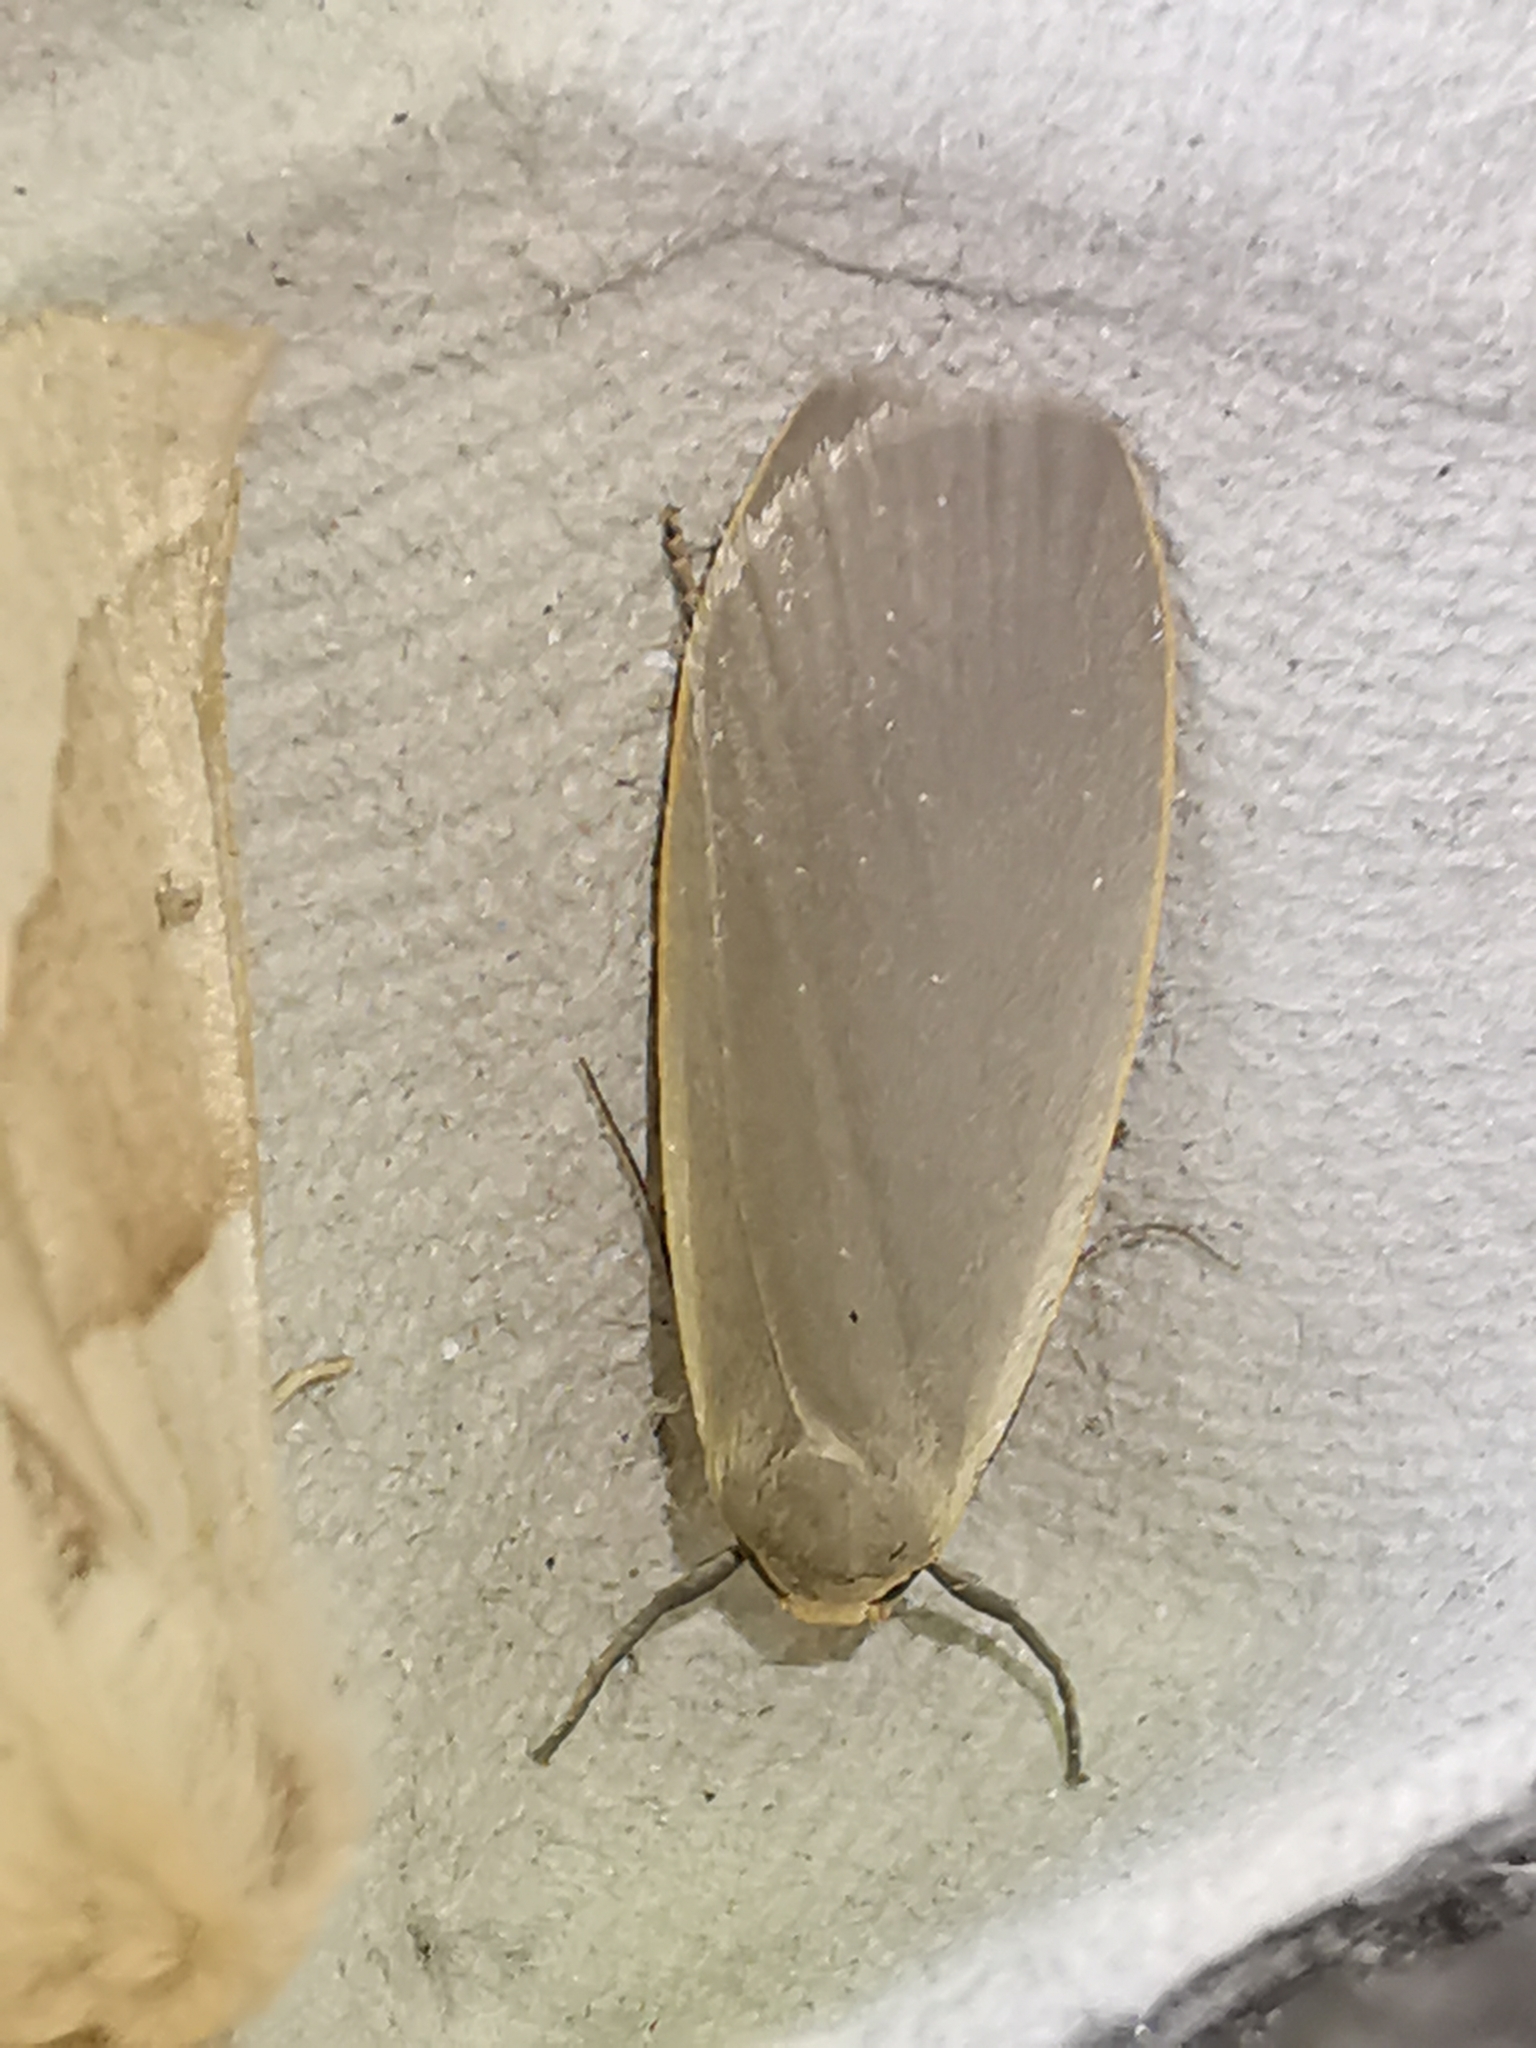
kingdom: Animalia
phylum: Arthropoda
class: Insecta
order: Lepidoptera
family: Erebidae
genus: Collita
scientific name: Collita griseola
